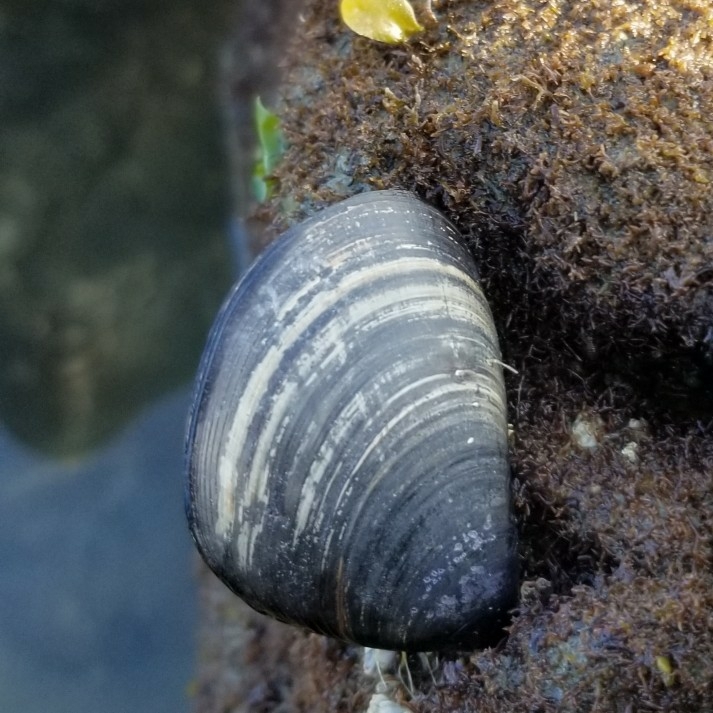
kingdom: Animalia
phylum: Mollusca
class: Bivalvia
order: Mytilida
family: Mytilidae
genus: Mytilus
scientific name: Mytilus
